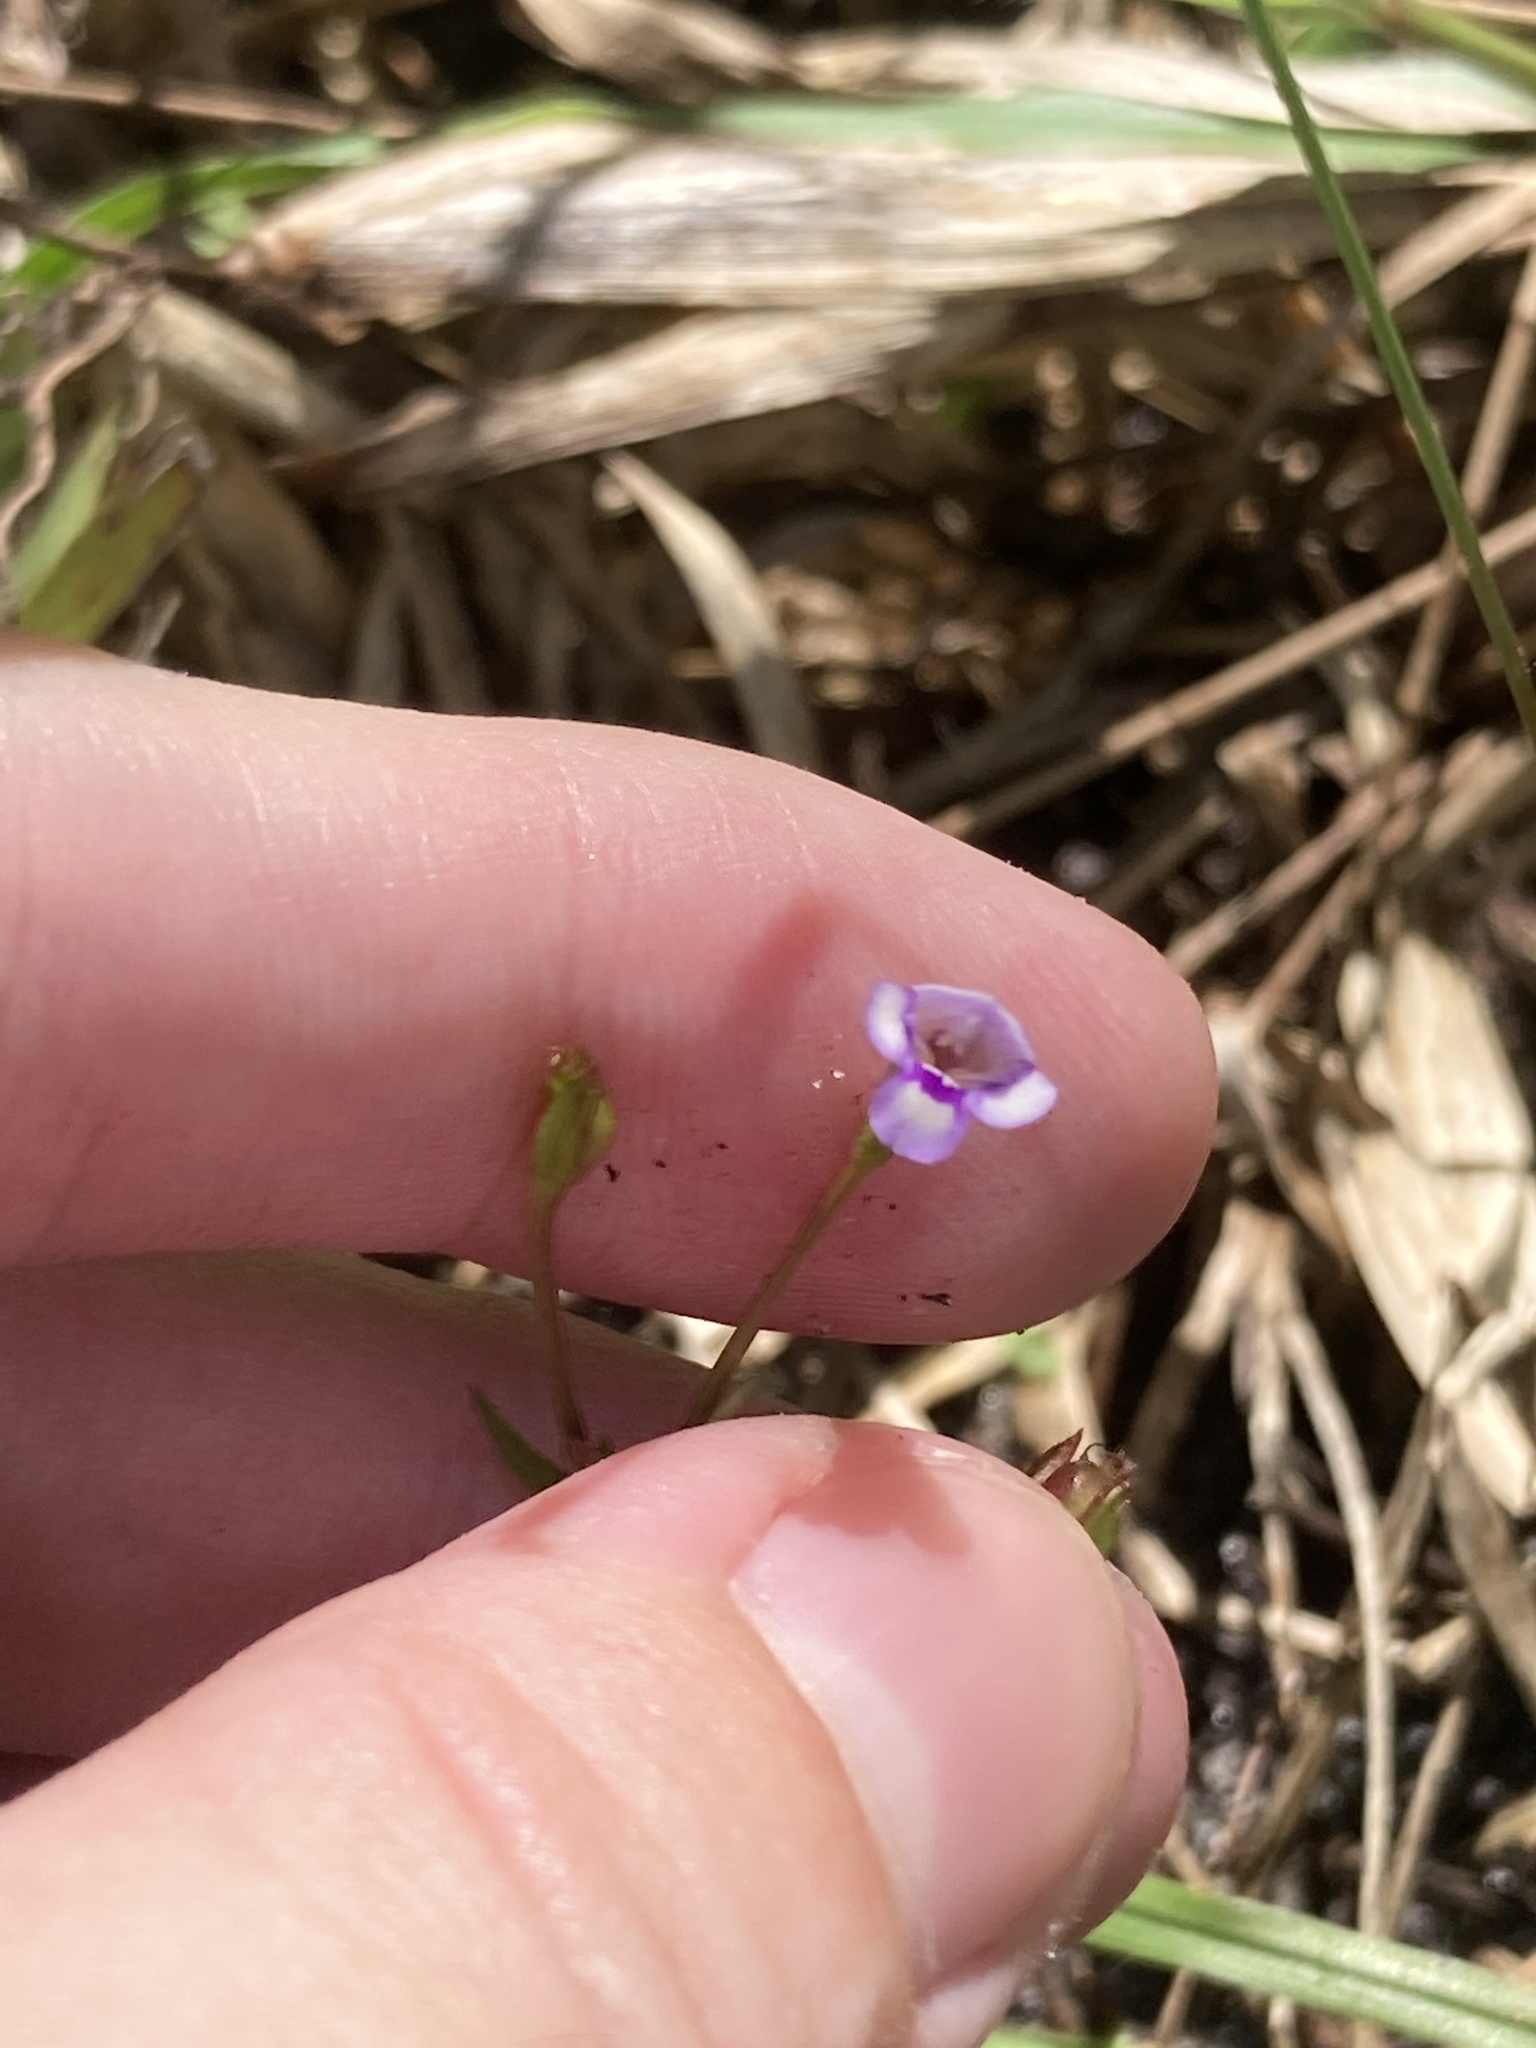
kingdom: Plantae
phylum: Tracheophyta
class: Magnoliopsida
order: Lamiales
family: Linderniaceae
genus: Torenia
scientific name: Torenia crustacea
